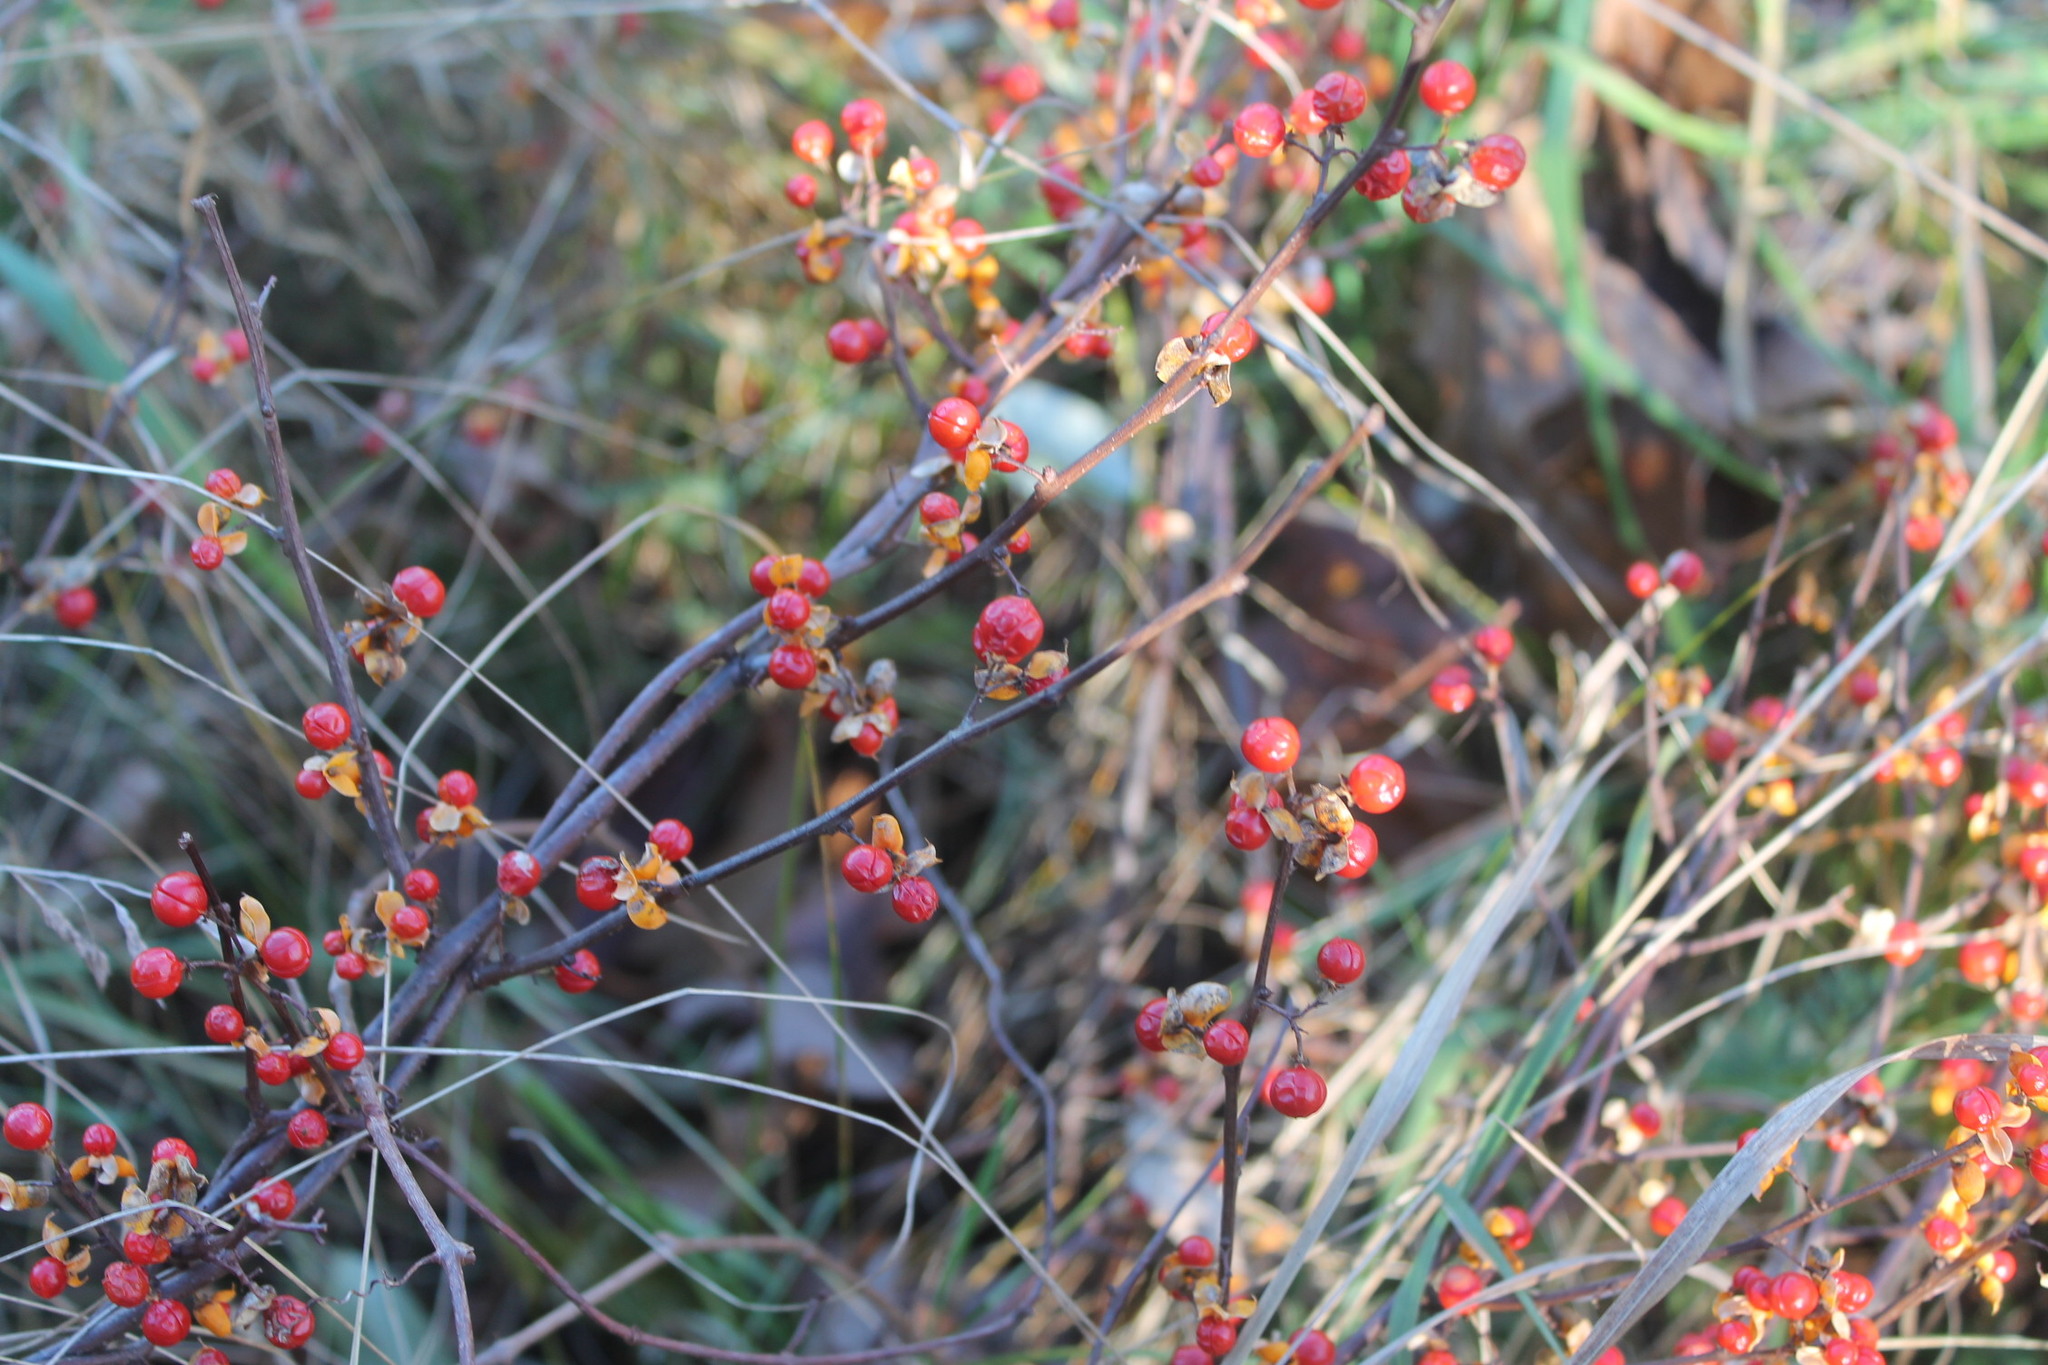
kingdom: Plantae
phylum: Tracheophyta
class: Magnoliopsida
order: Celastrales
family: Celastraceae
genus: Celastrus
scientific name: Celastrus orbiculatus
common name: Oriental bittersweet
